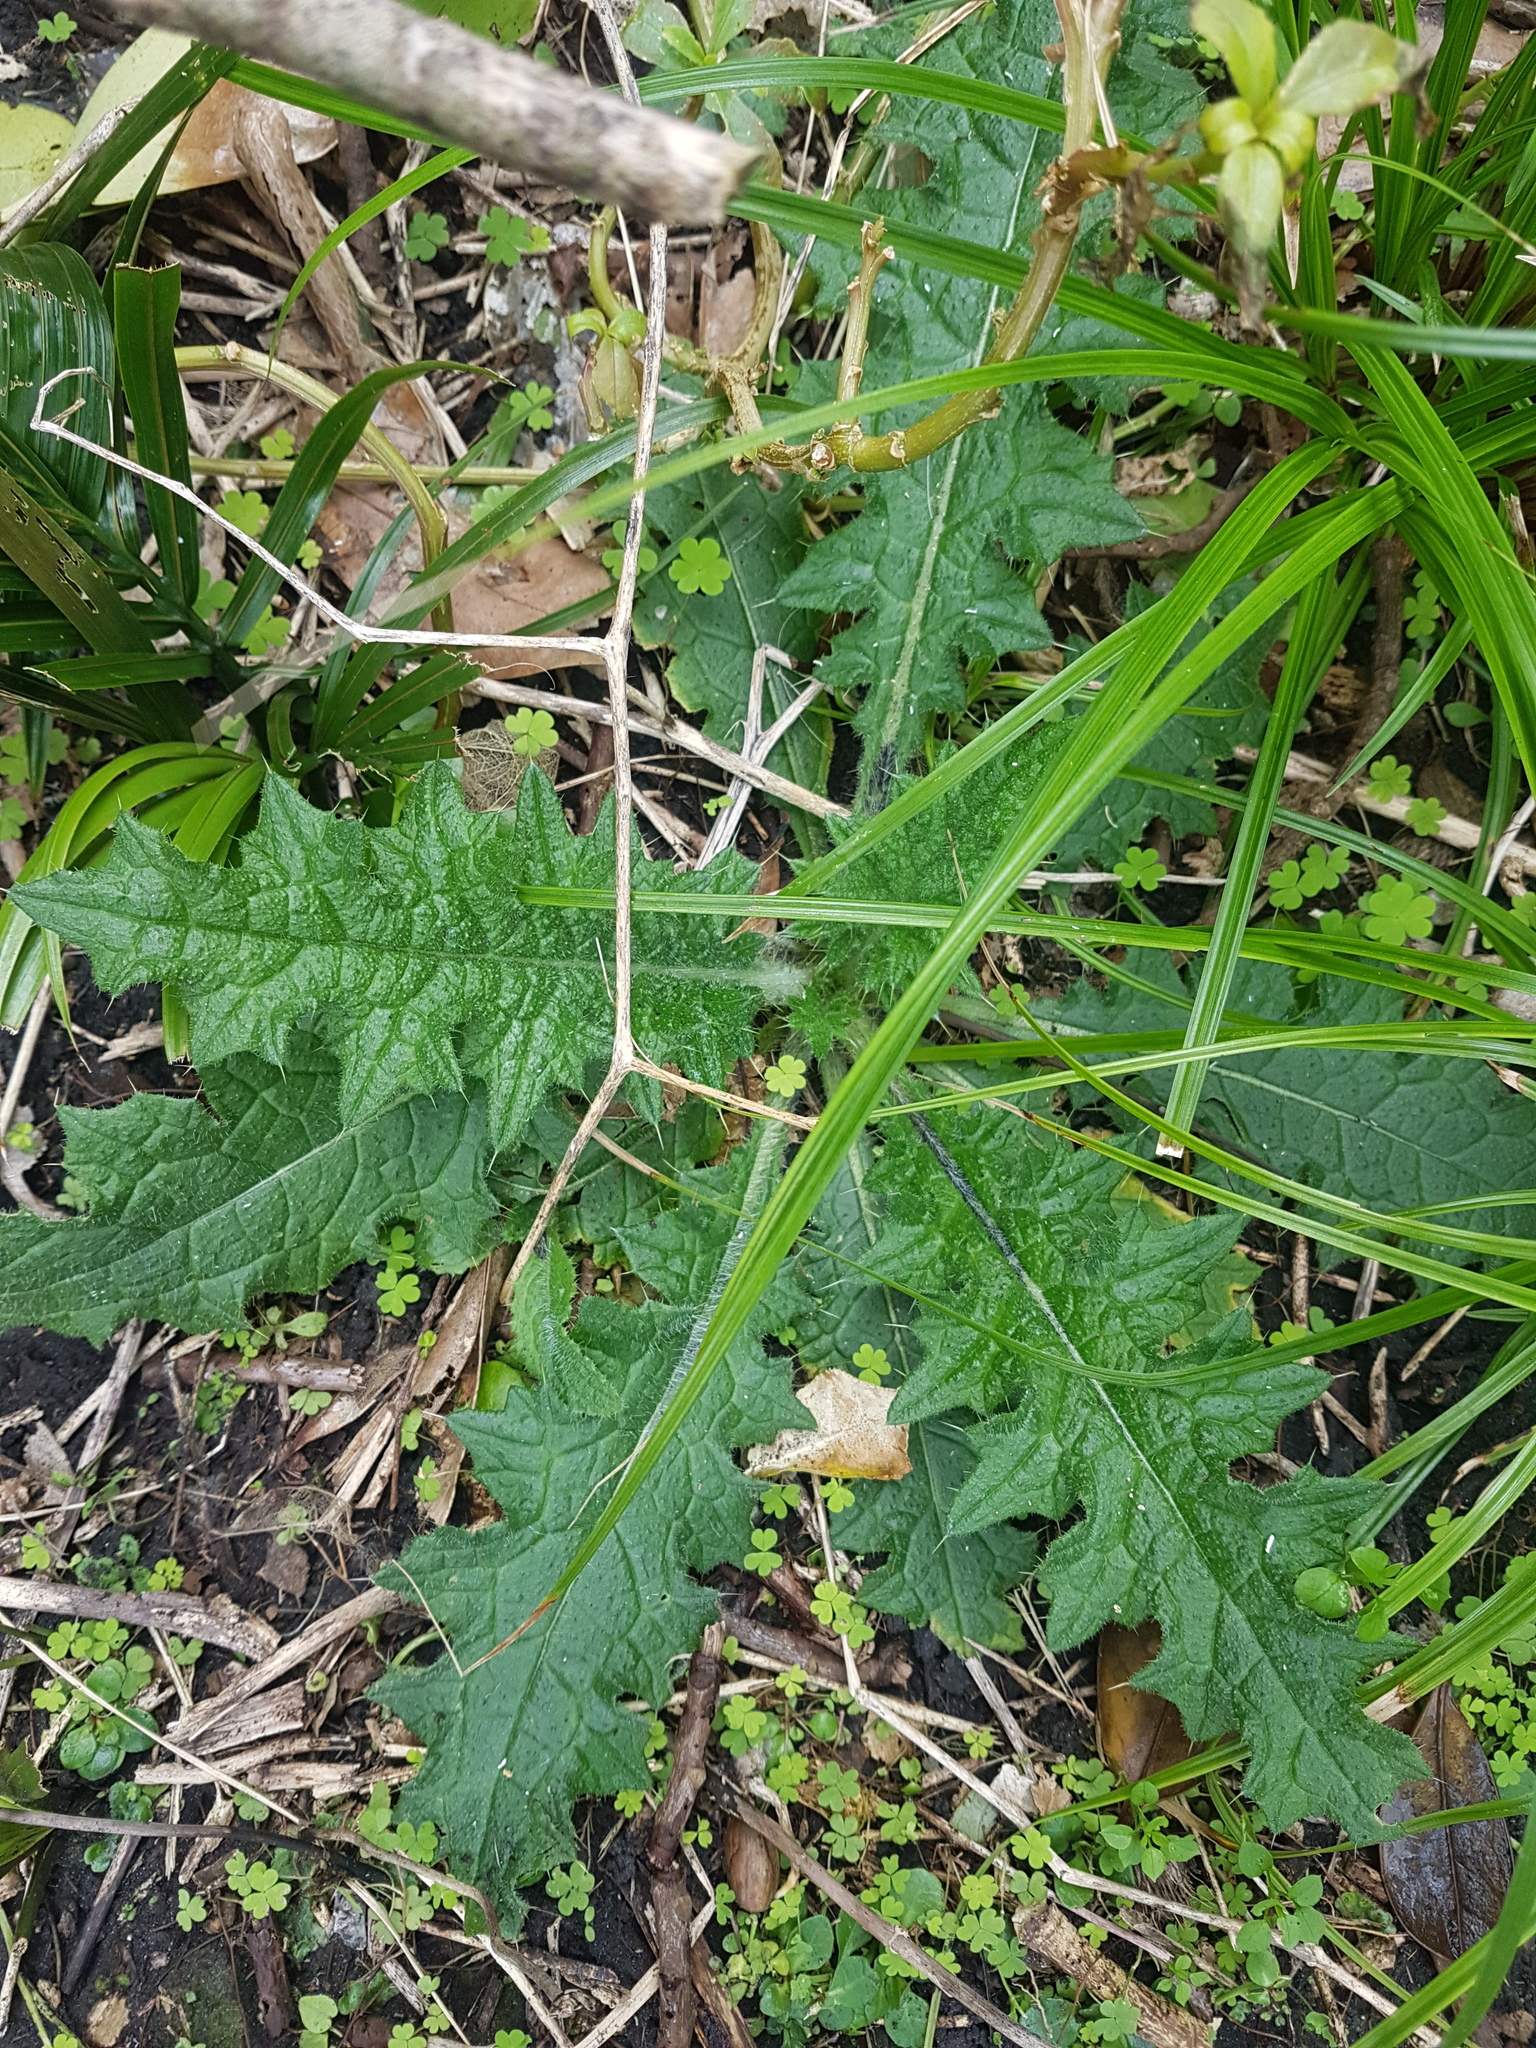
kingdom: Plantae
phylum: Tracheophyta
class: Magnoliopsida
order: Asterales
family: Asteraceae
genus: Cirsium
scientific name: Cirsium vulgare
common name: Bull thistle
